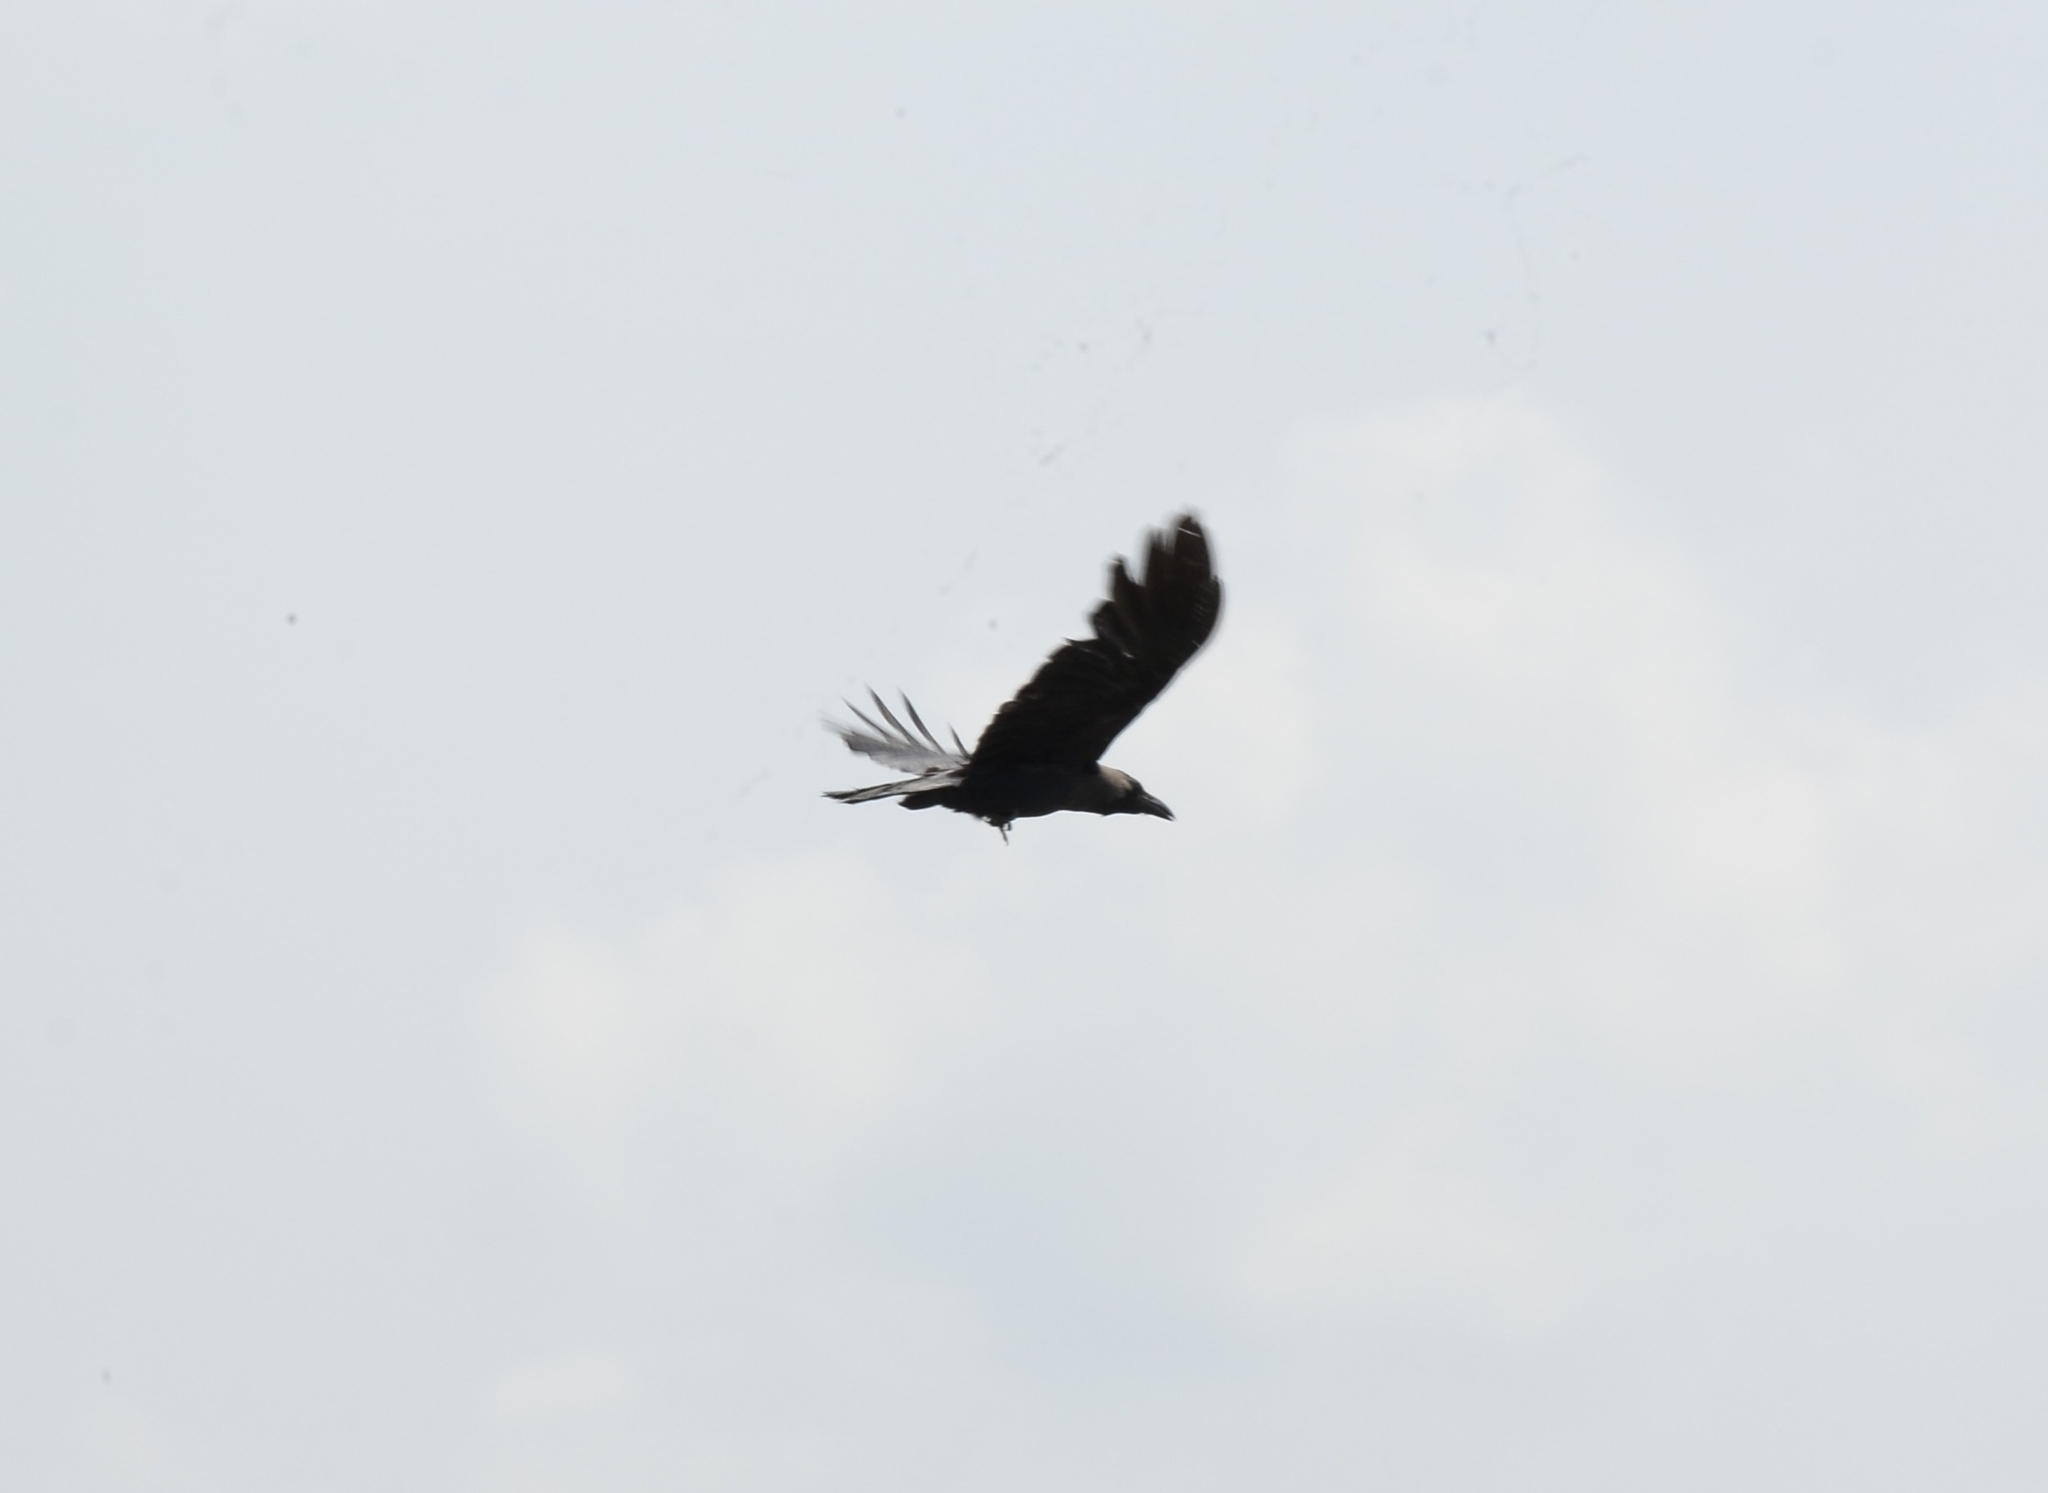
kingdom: Animalia
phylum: Chordata
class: Aves
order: Passeriformes
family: Corvidae
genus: Corvus
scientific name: Corvus splendens
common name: House crow
